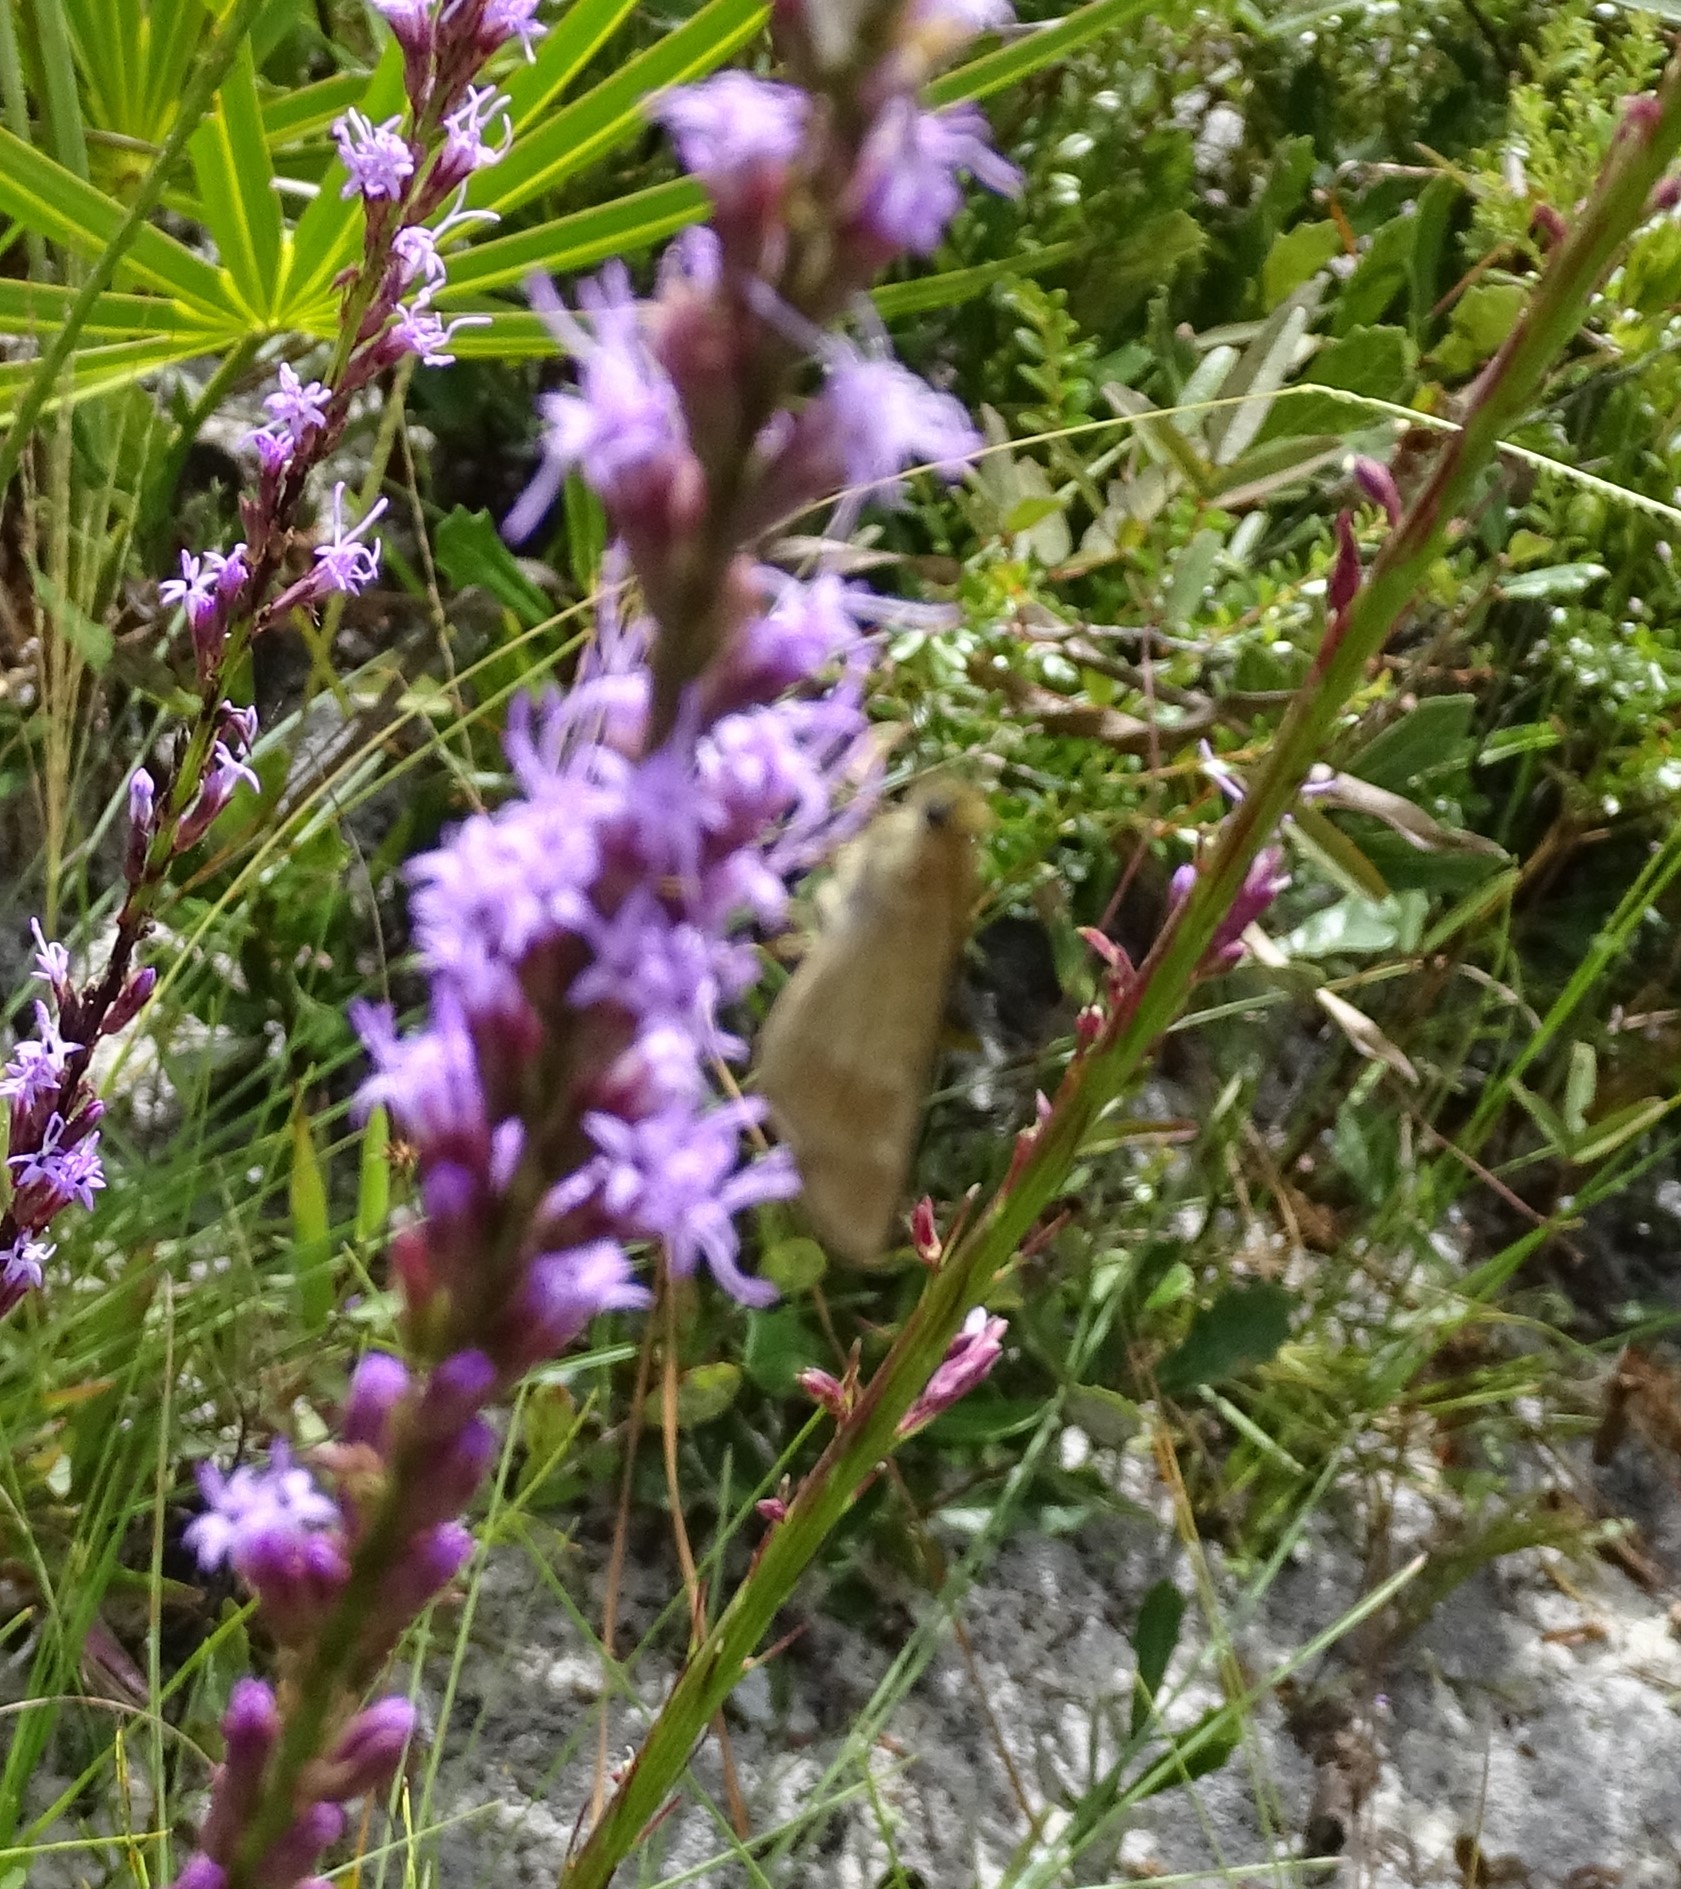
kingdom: Animalia
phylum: Arthropoda
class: Insecta
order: Lepidoptera
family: Hesperiidae
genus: Panoquina
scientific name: Panoquina ocola
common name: Ocola skipper
